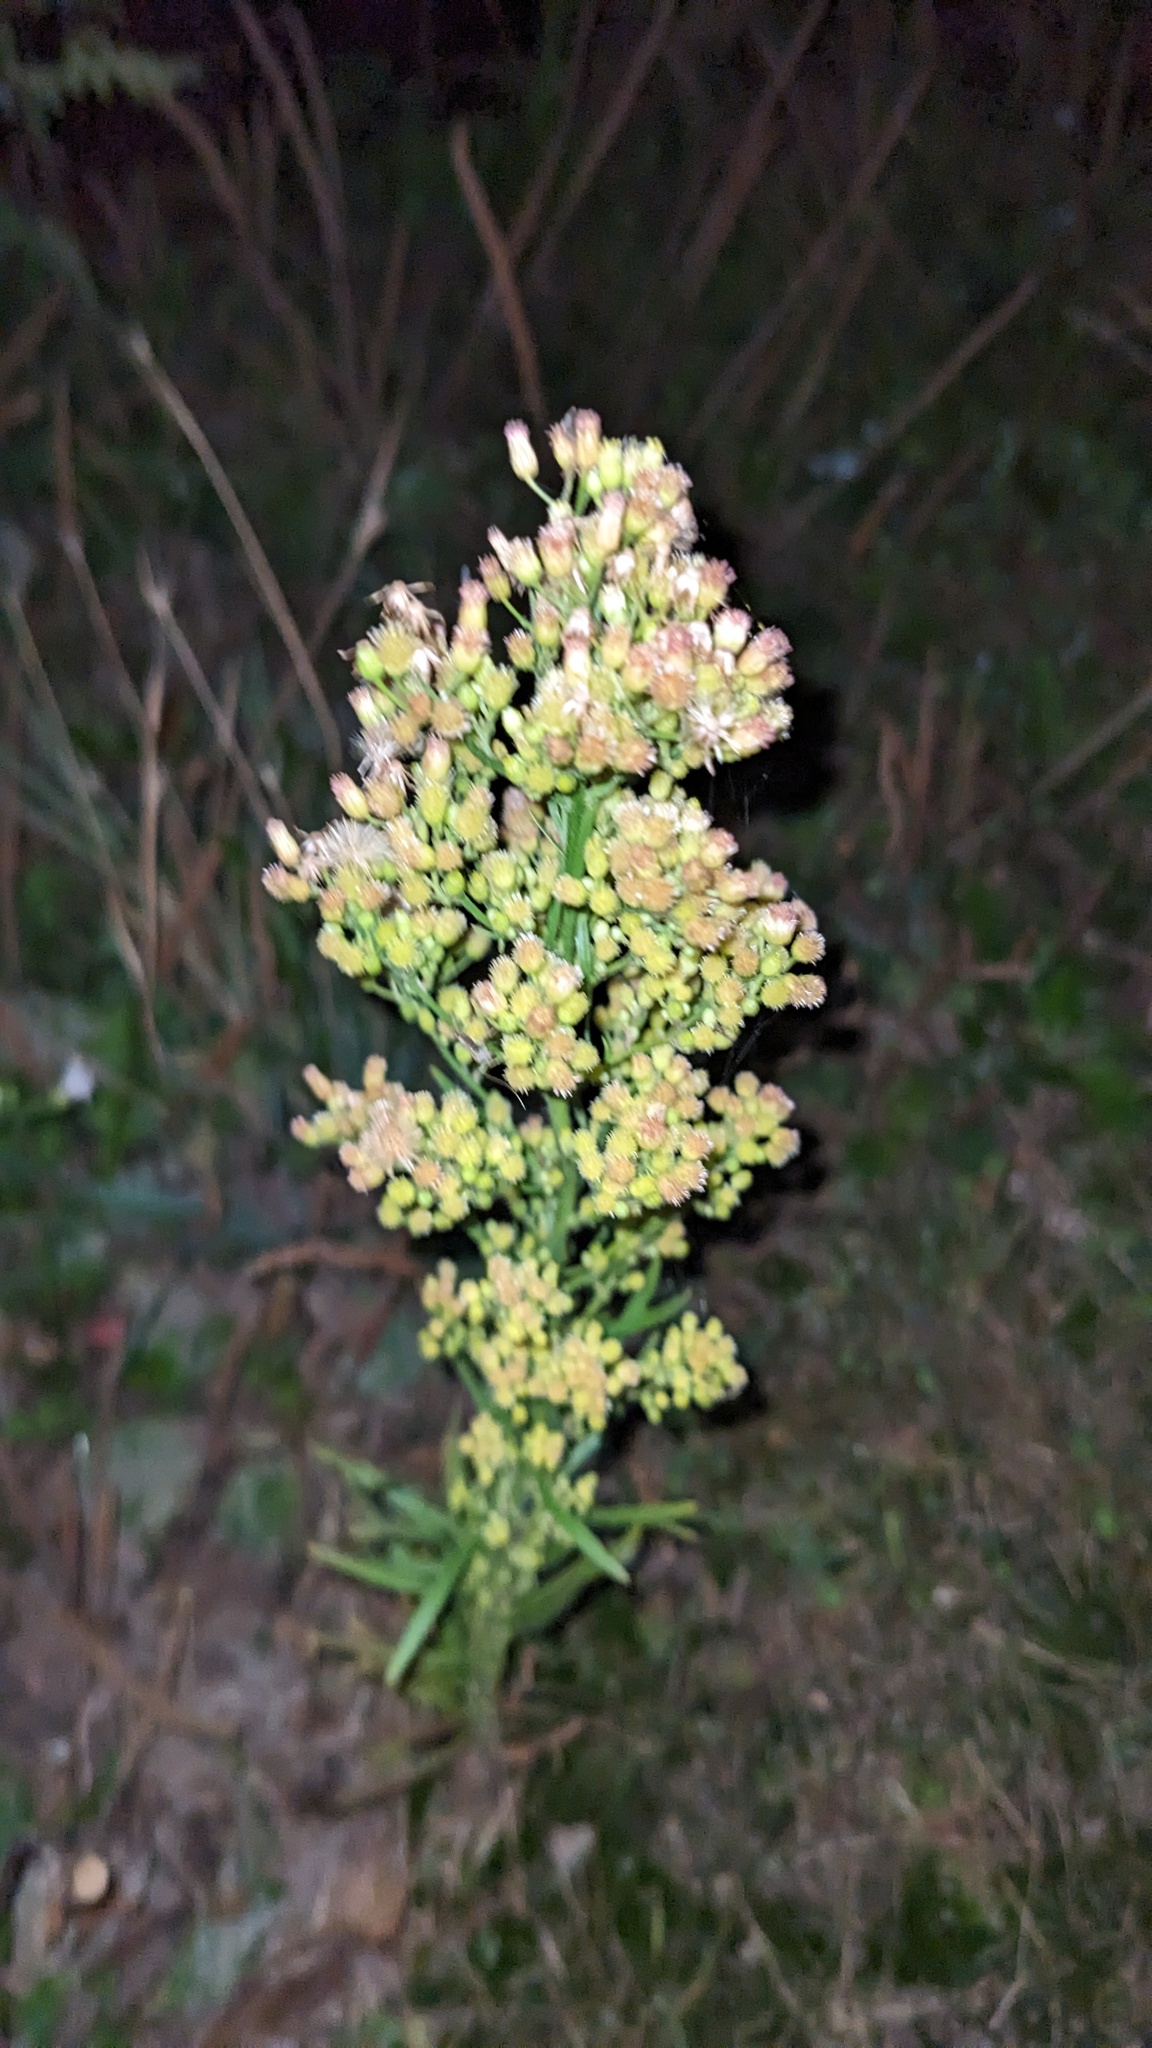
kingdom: Plantae
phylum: Tracheophyta
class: Magnoliopsida
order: Asterales
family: Asteraceae
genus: Erigeron
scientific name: Erigeron canadensis
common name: Canadian fleabane
